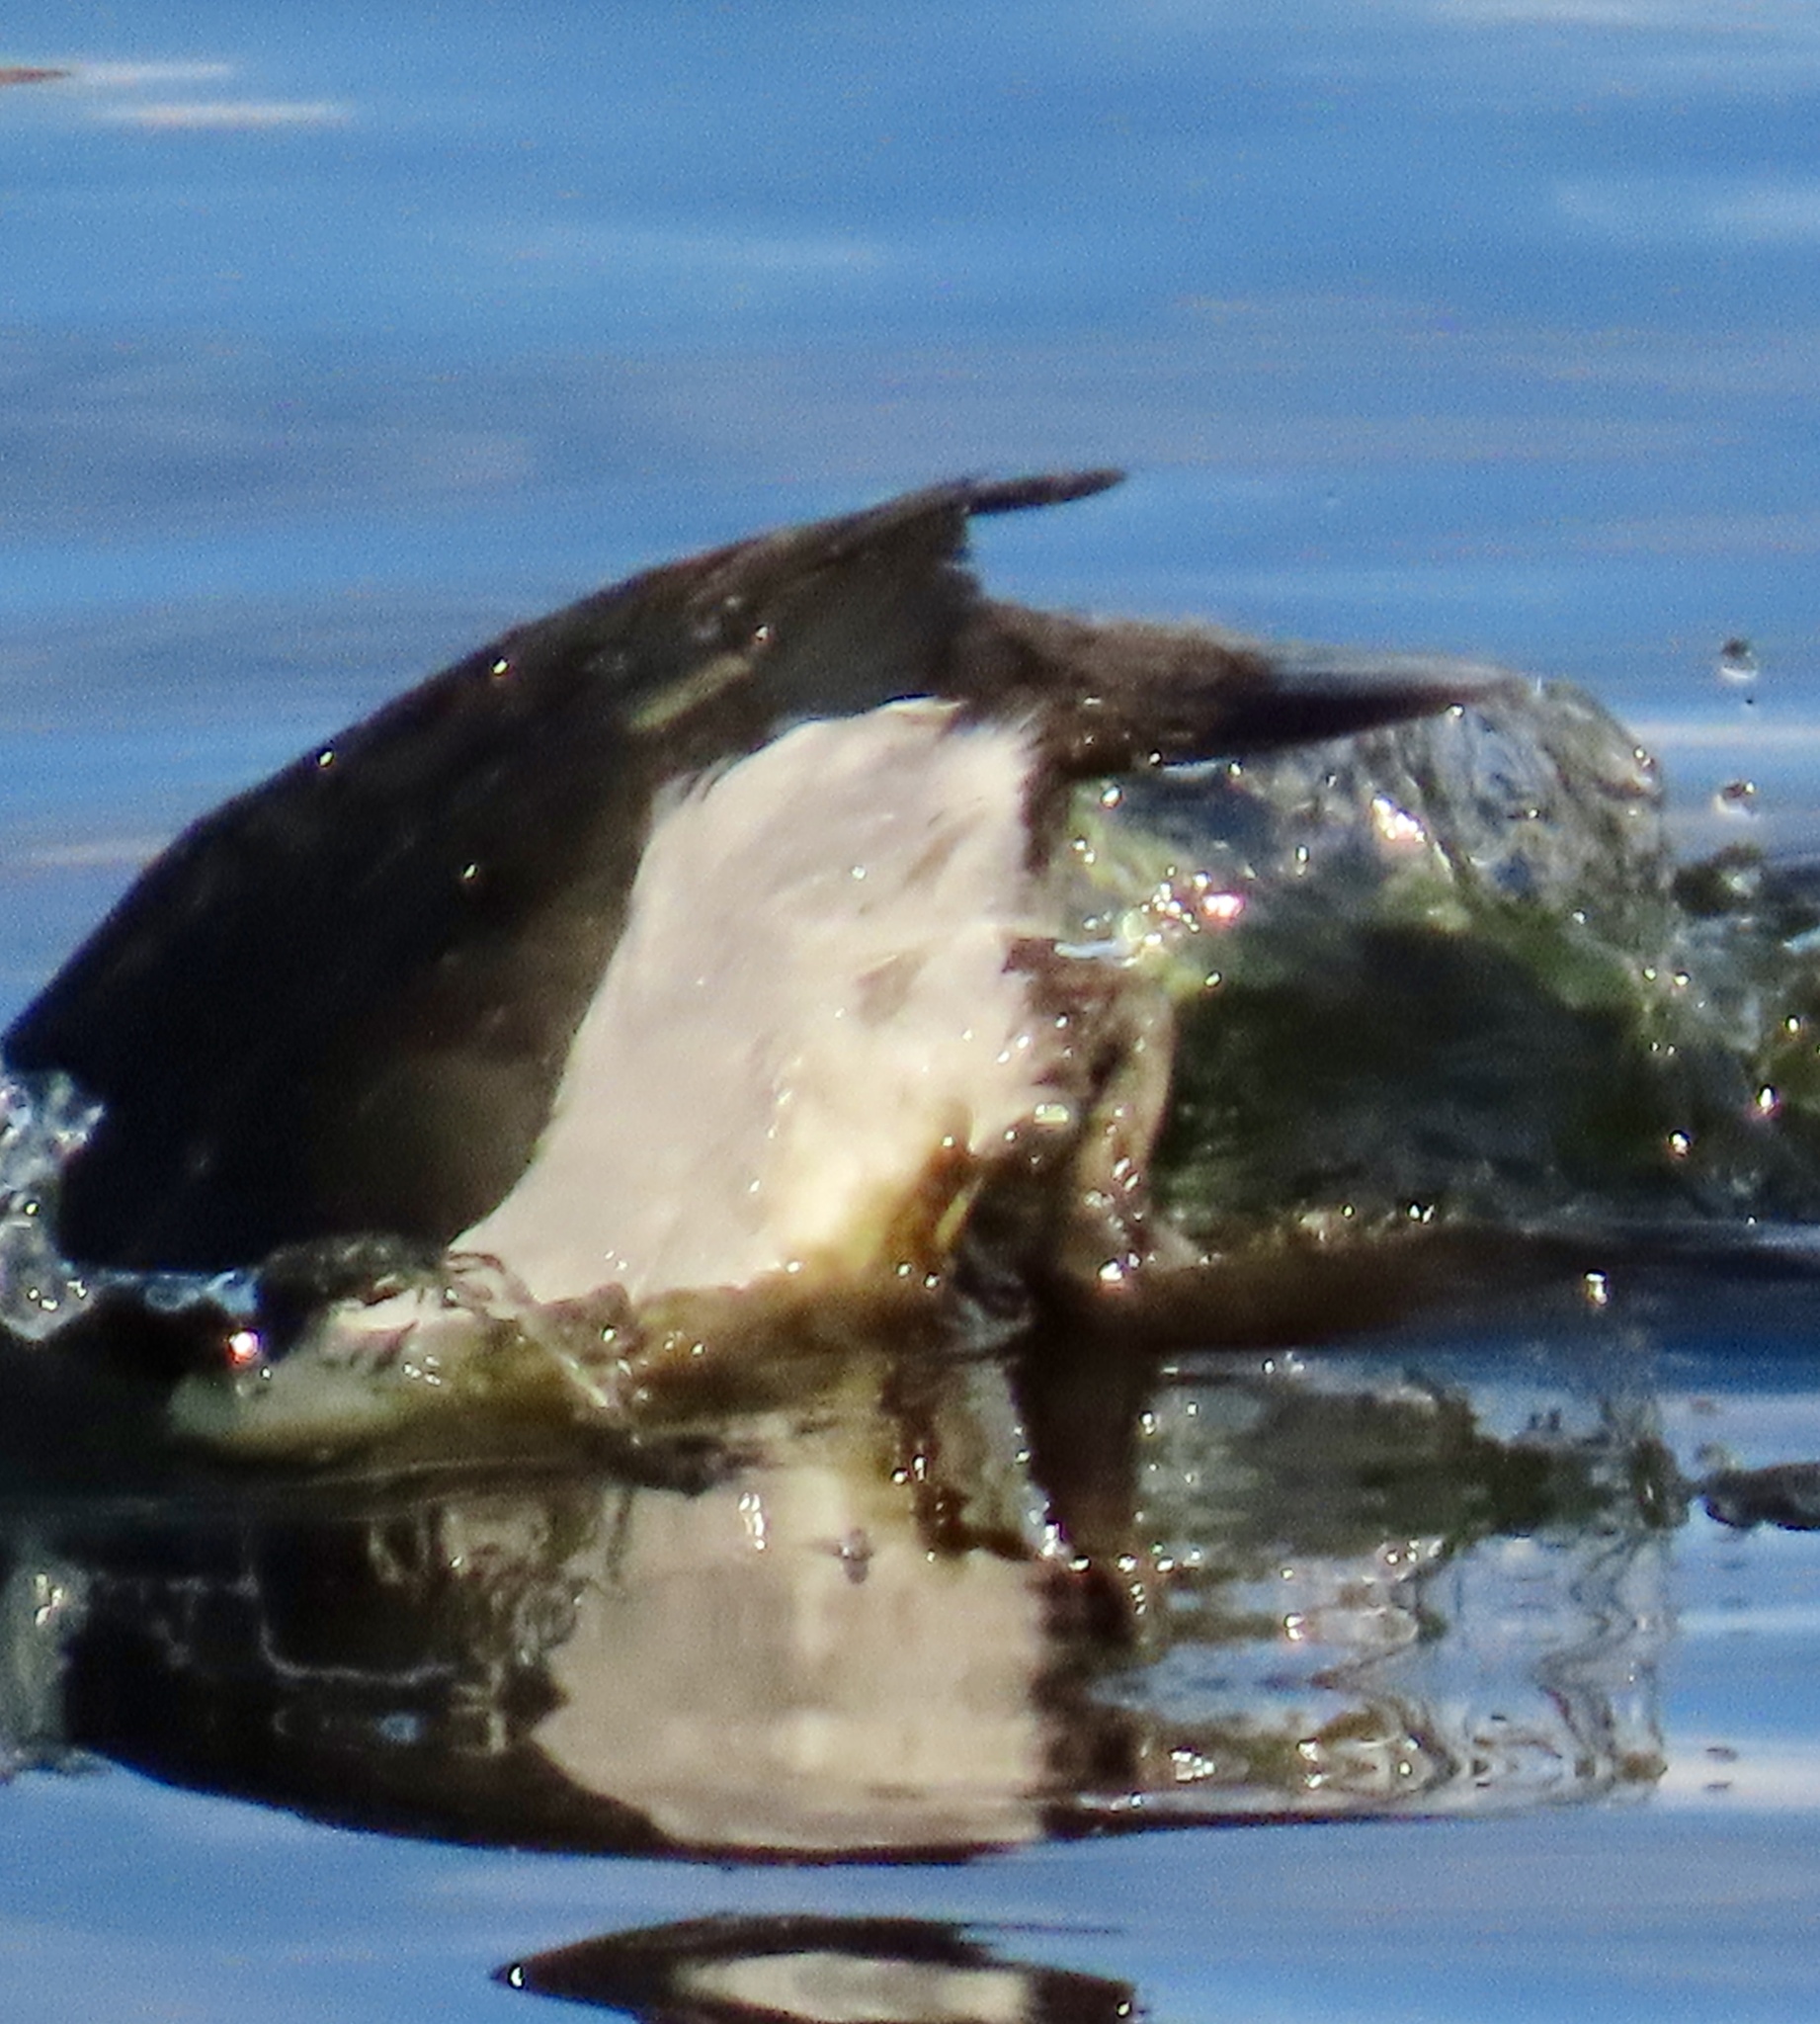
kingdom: Animalia
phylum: Chordata
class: Aves
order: Anseriformes
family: Anatidae
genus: Aythya
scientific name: Aythya collaris
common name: Ring-necked duck
